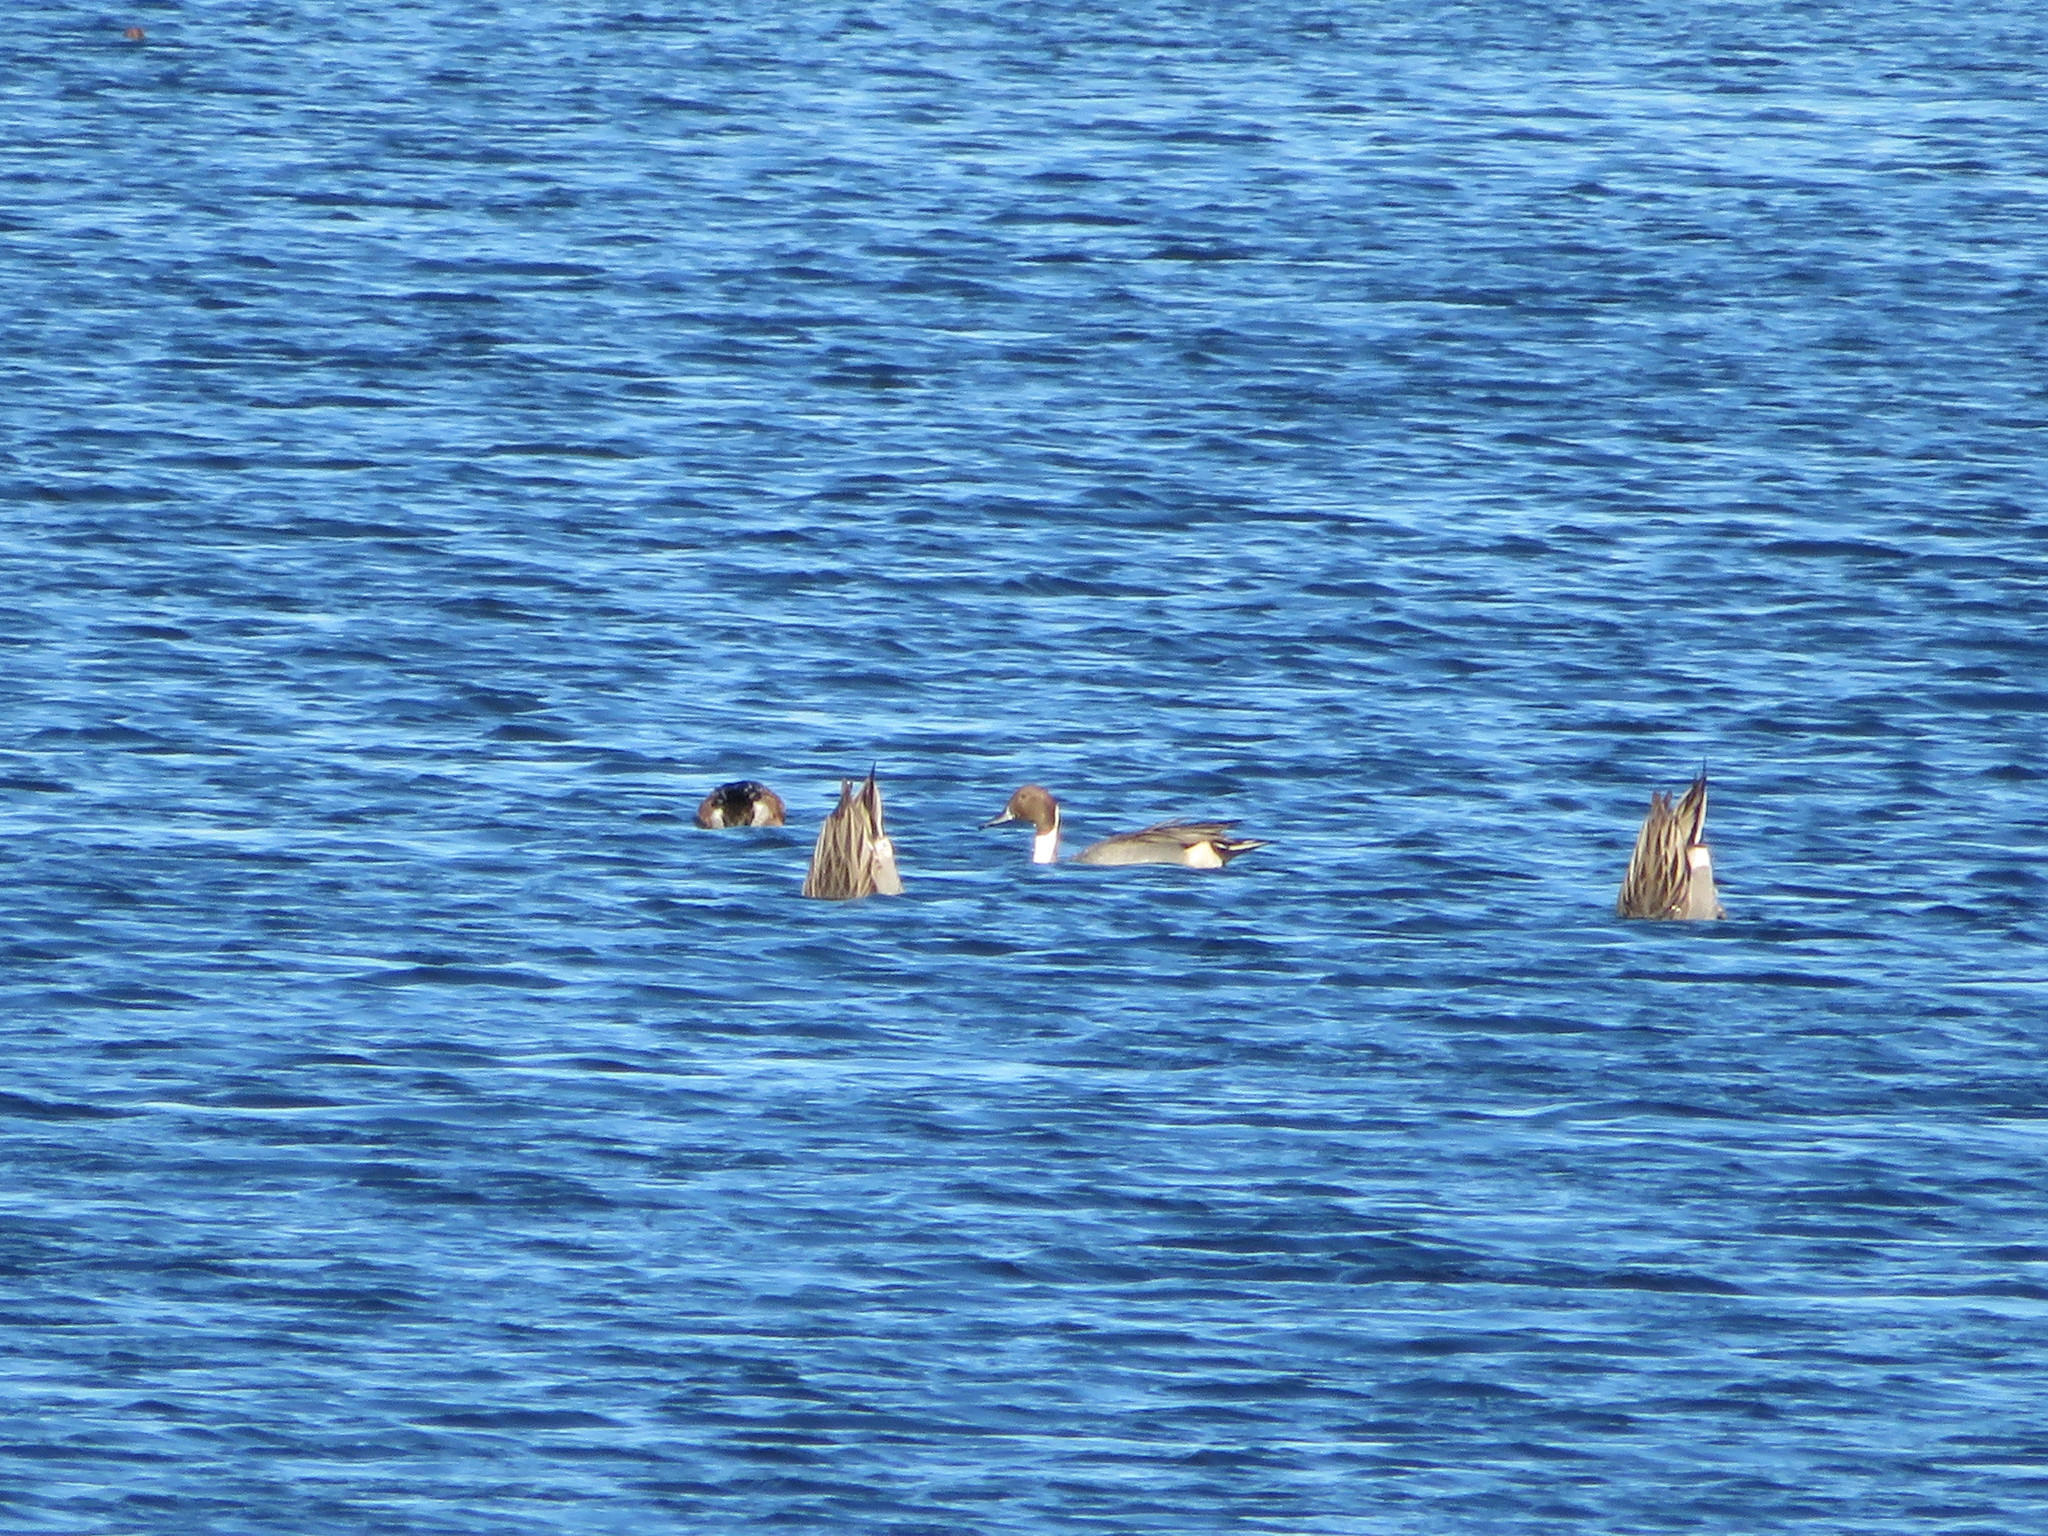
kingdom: Animalia
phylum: Chordata
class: Aves
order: Anseriformes
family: Anatidae
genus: Anas
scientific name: Anas acuta
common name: Northern pintail
